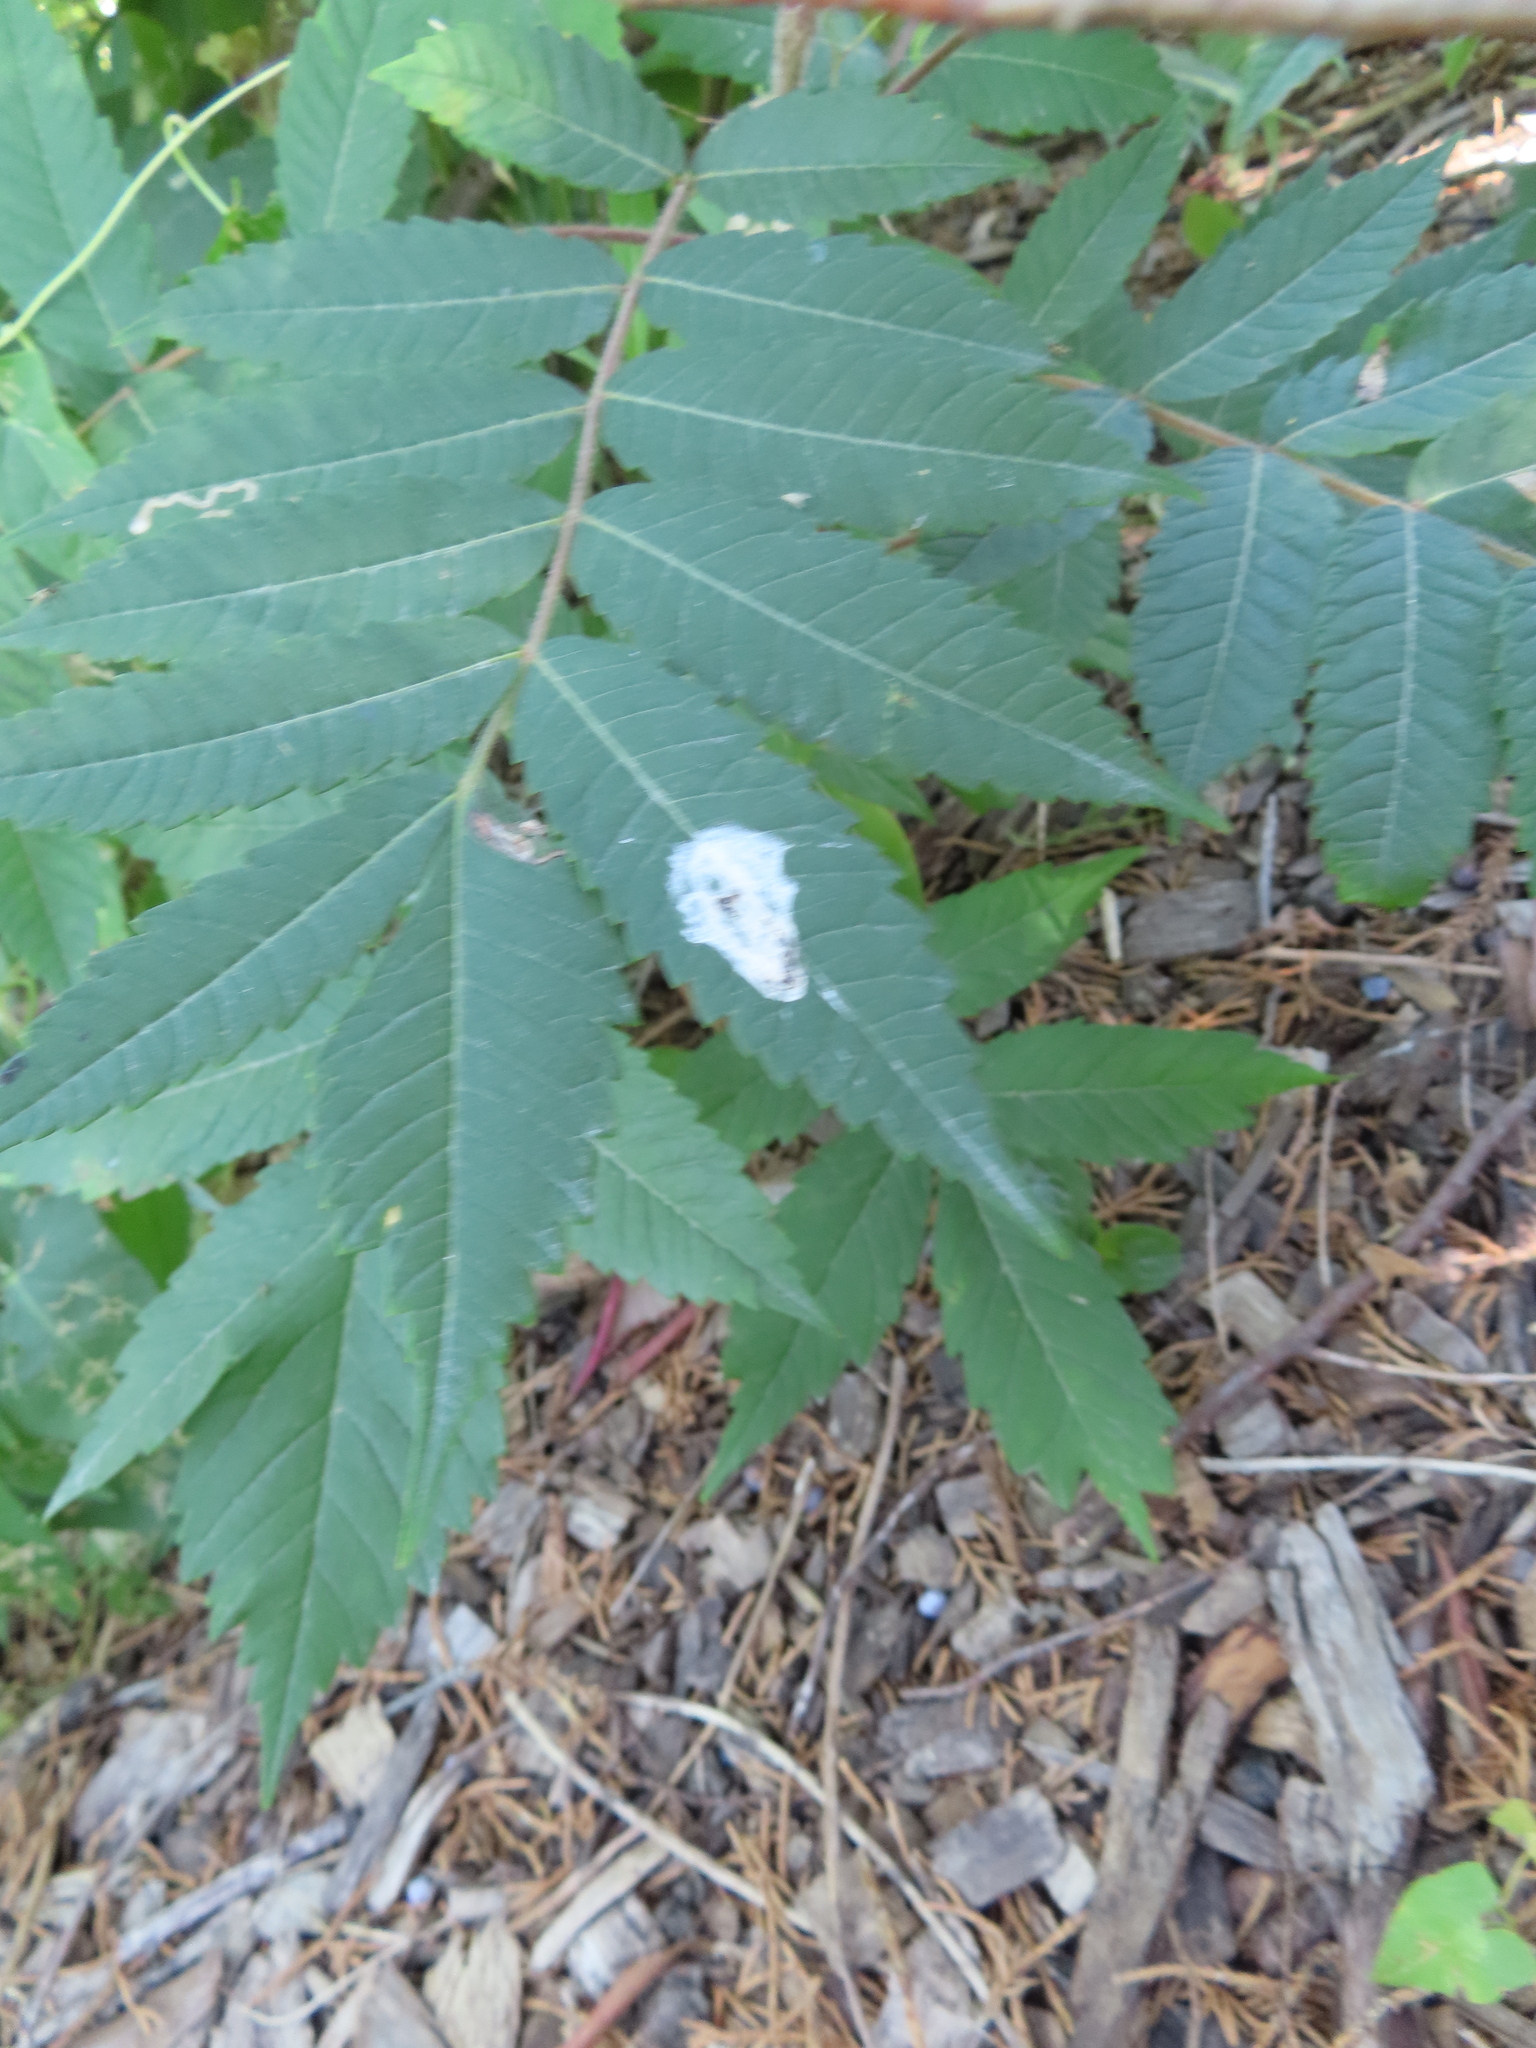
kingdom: Animalia
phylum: Arthropoda
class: Insecta
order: Lepidoptera
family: Nepticulidae
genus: Stigmella
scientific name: Stigmella intermedia
